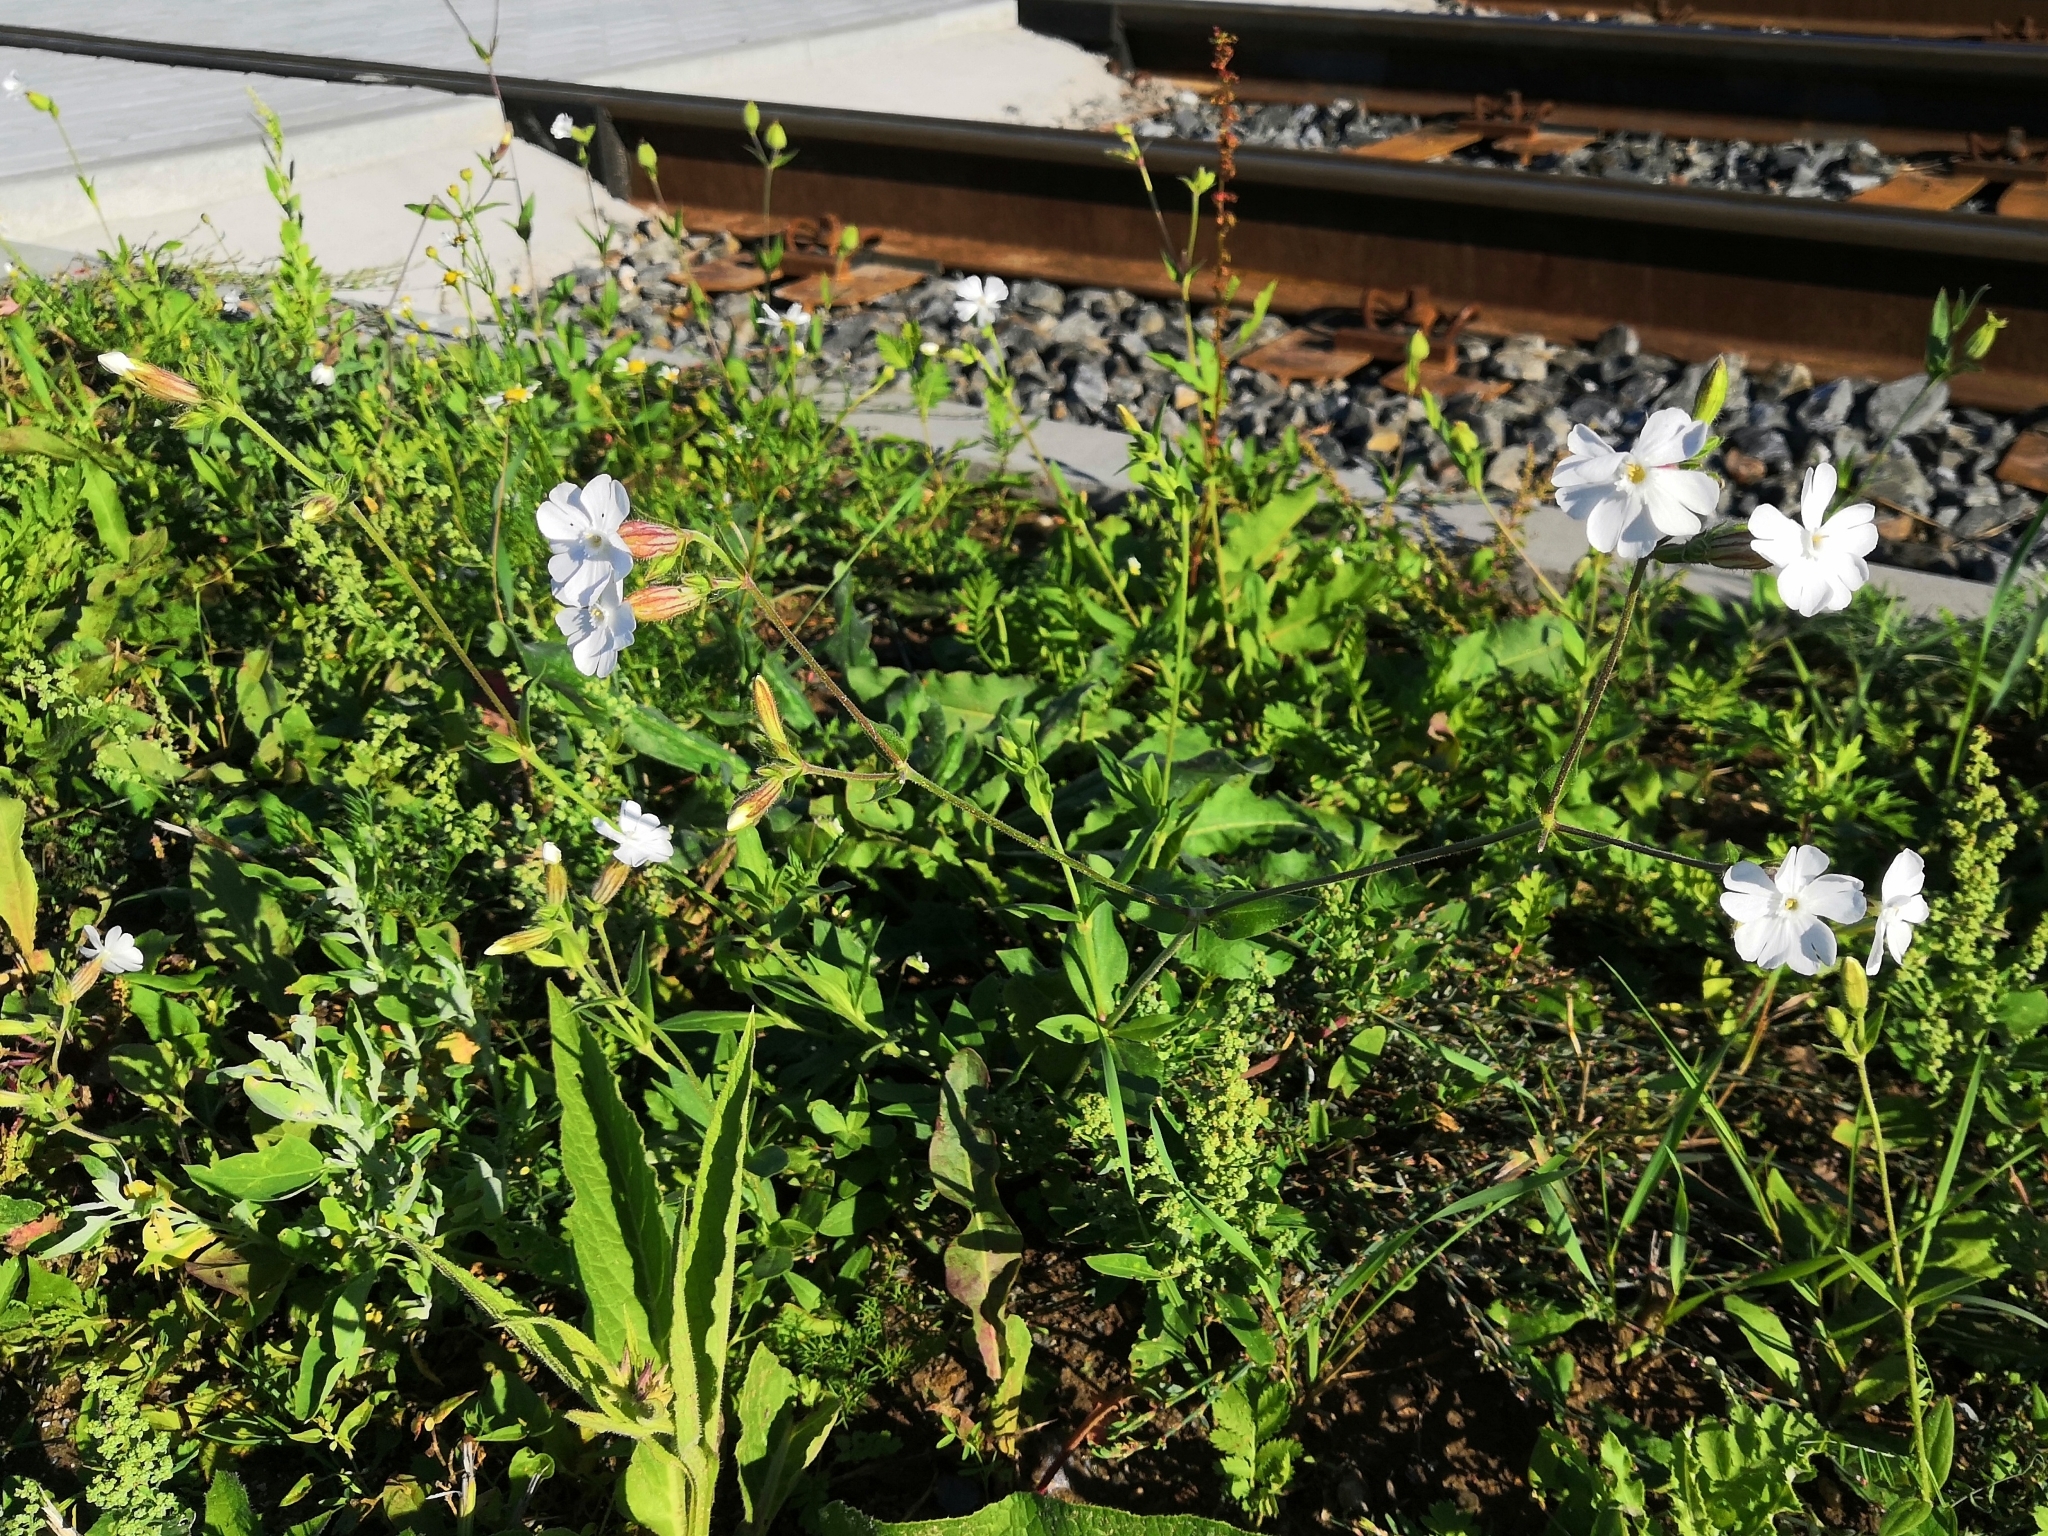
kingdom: Plantae
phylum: Tracheophyta
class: Magnoliopsida
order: Caryophyllales
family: Caryophyllaceae
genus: Silene
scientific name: Silene latifolia
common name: White campion
